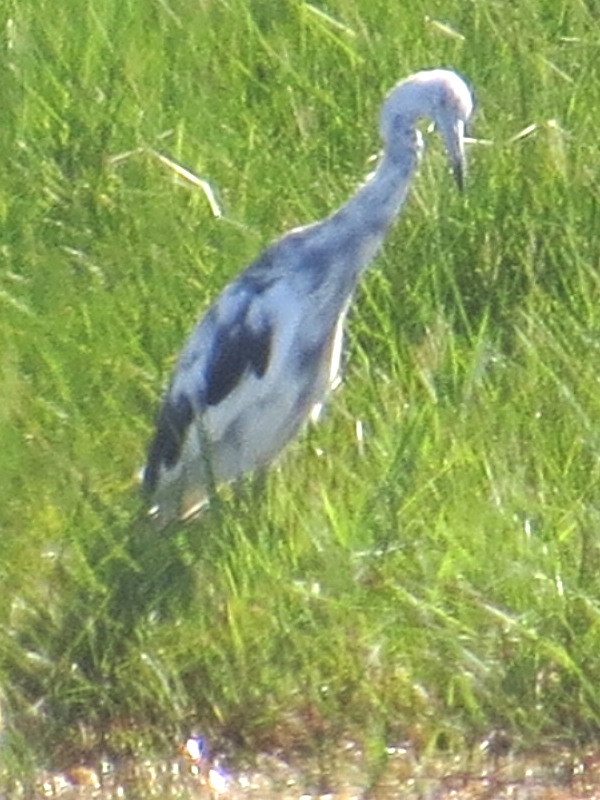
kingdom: Animalia
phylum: Chordata
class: Aves
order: Pelecaniformes
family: Ardeidae
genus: Egretta
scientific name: Egretta caerulea
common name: Little blue heron
